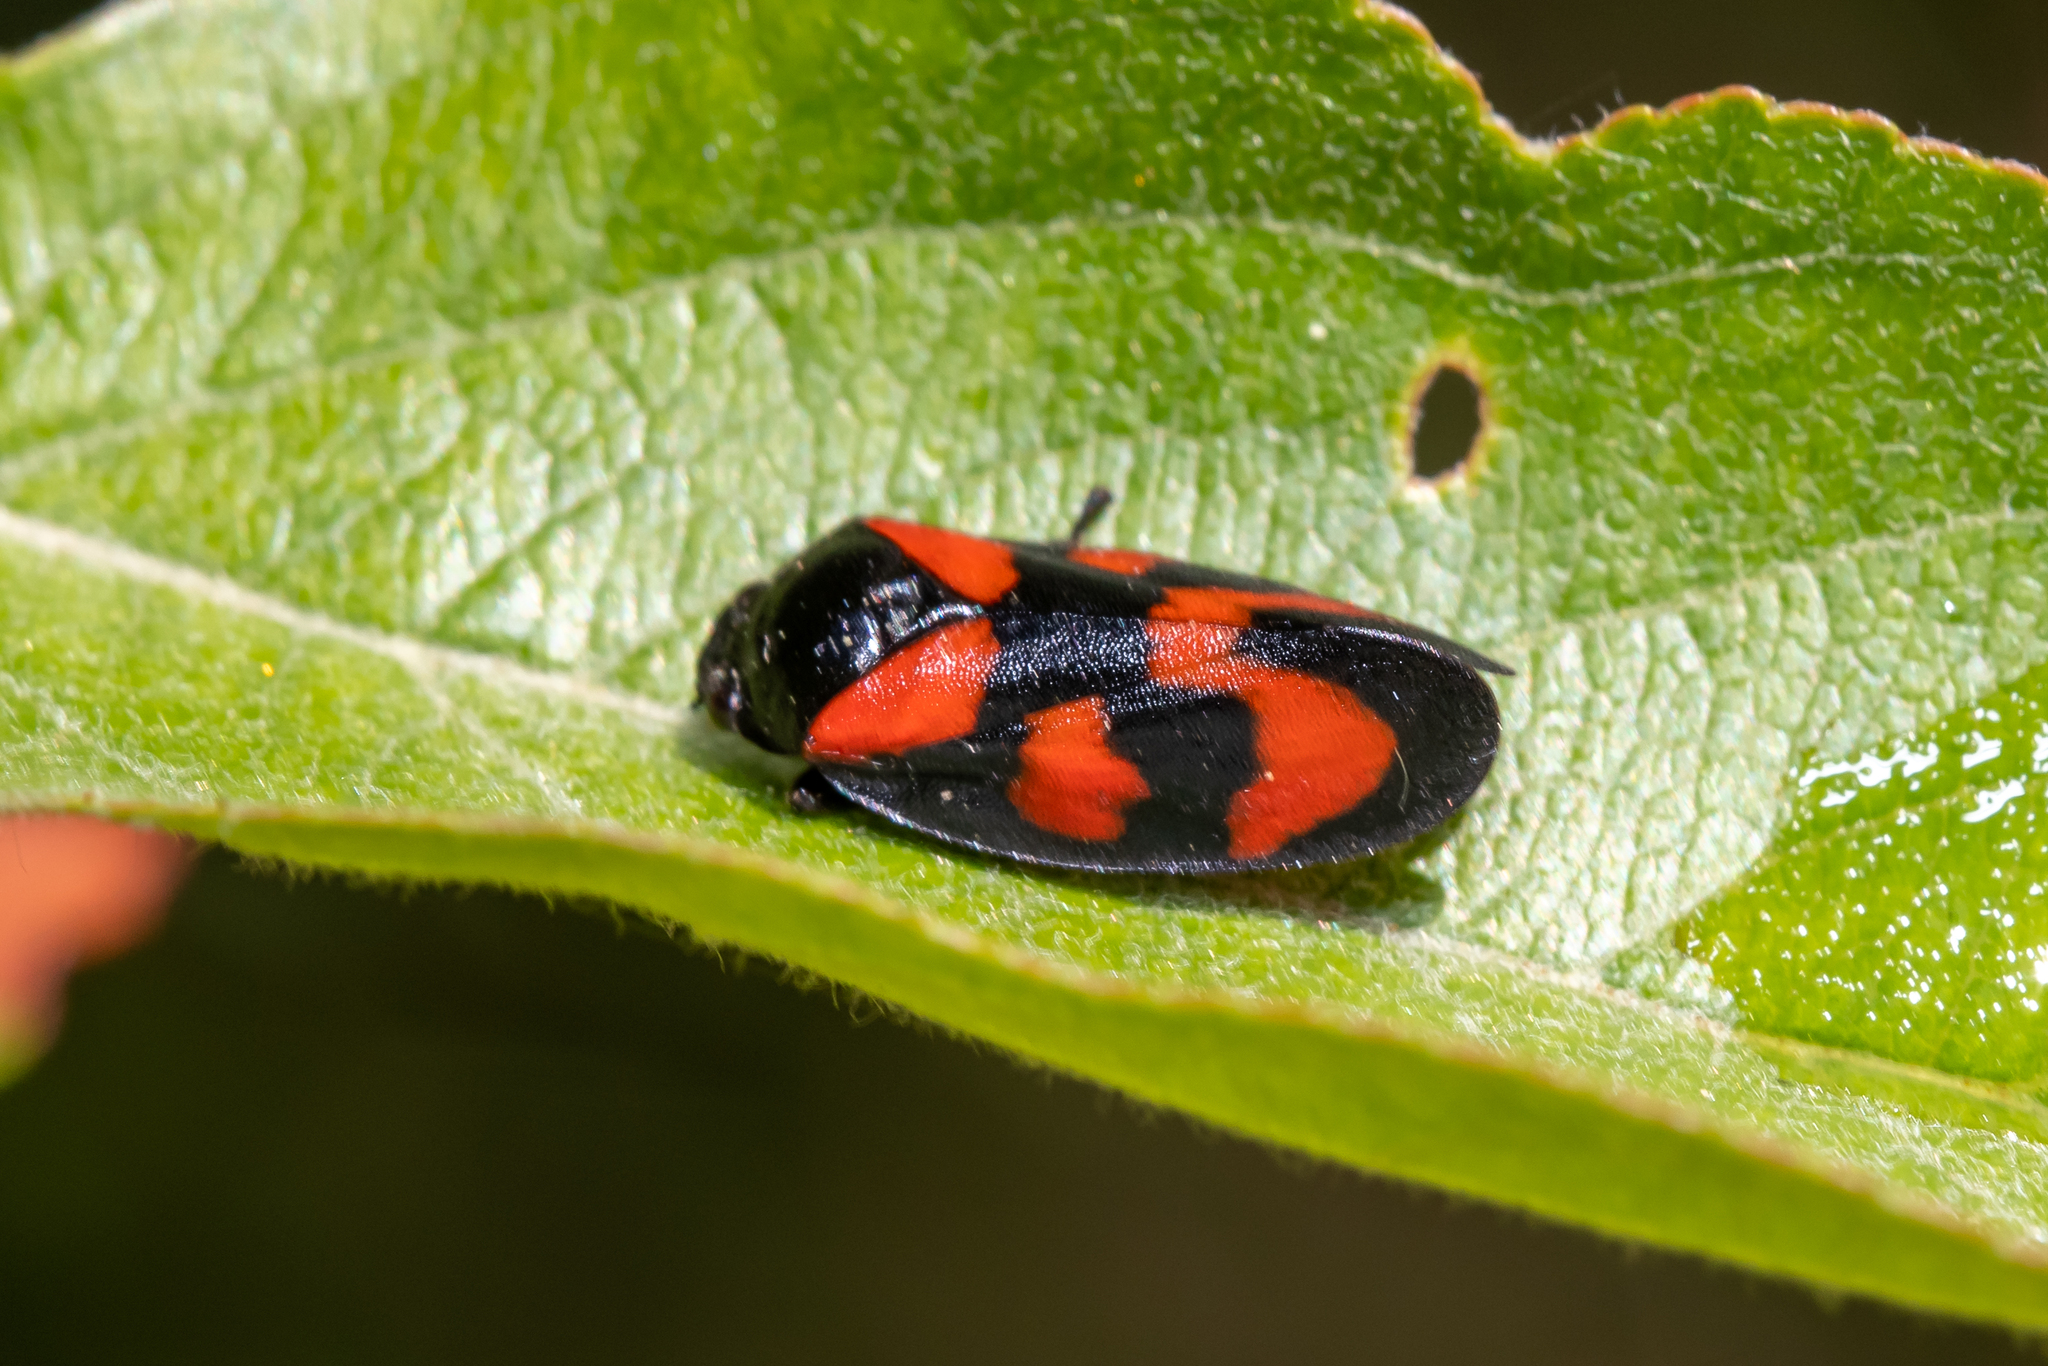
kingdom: Animalia
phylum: Arthropoda
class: Insecta
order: Hemiptera
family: Cercopidae
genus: Cercopis
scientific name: Cercopis vulnerata
